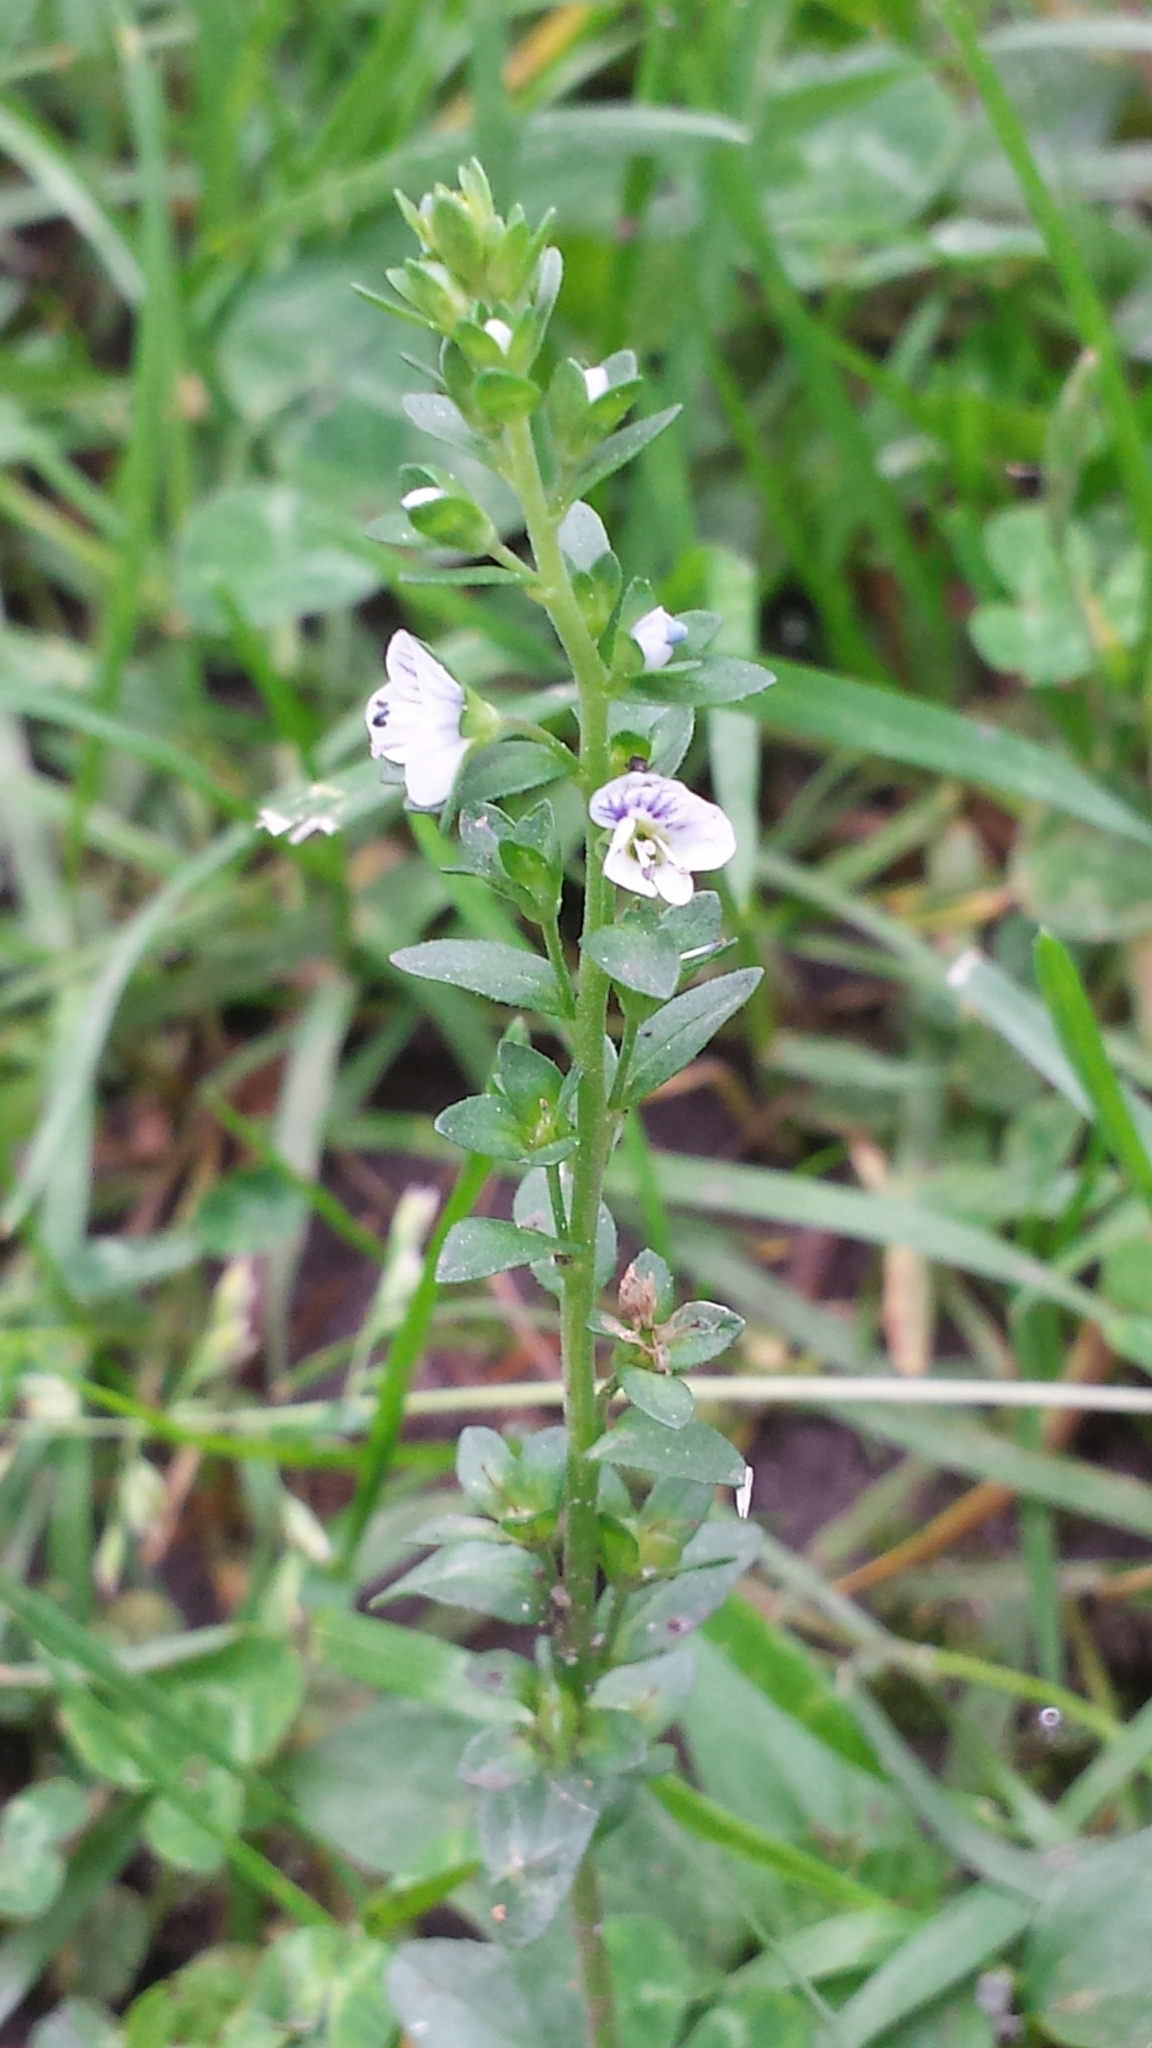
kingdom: Plantae
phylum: Tracheophyta
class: Magnoliopsida
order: Lamiales
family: Plantaginaceae
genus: Veronica
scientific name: Veronica serpyllifolia
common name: Thyme-leaved speedwell
